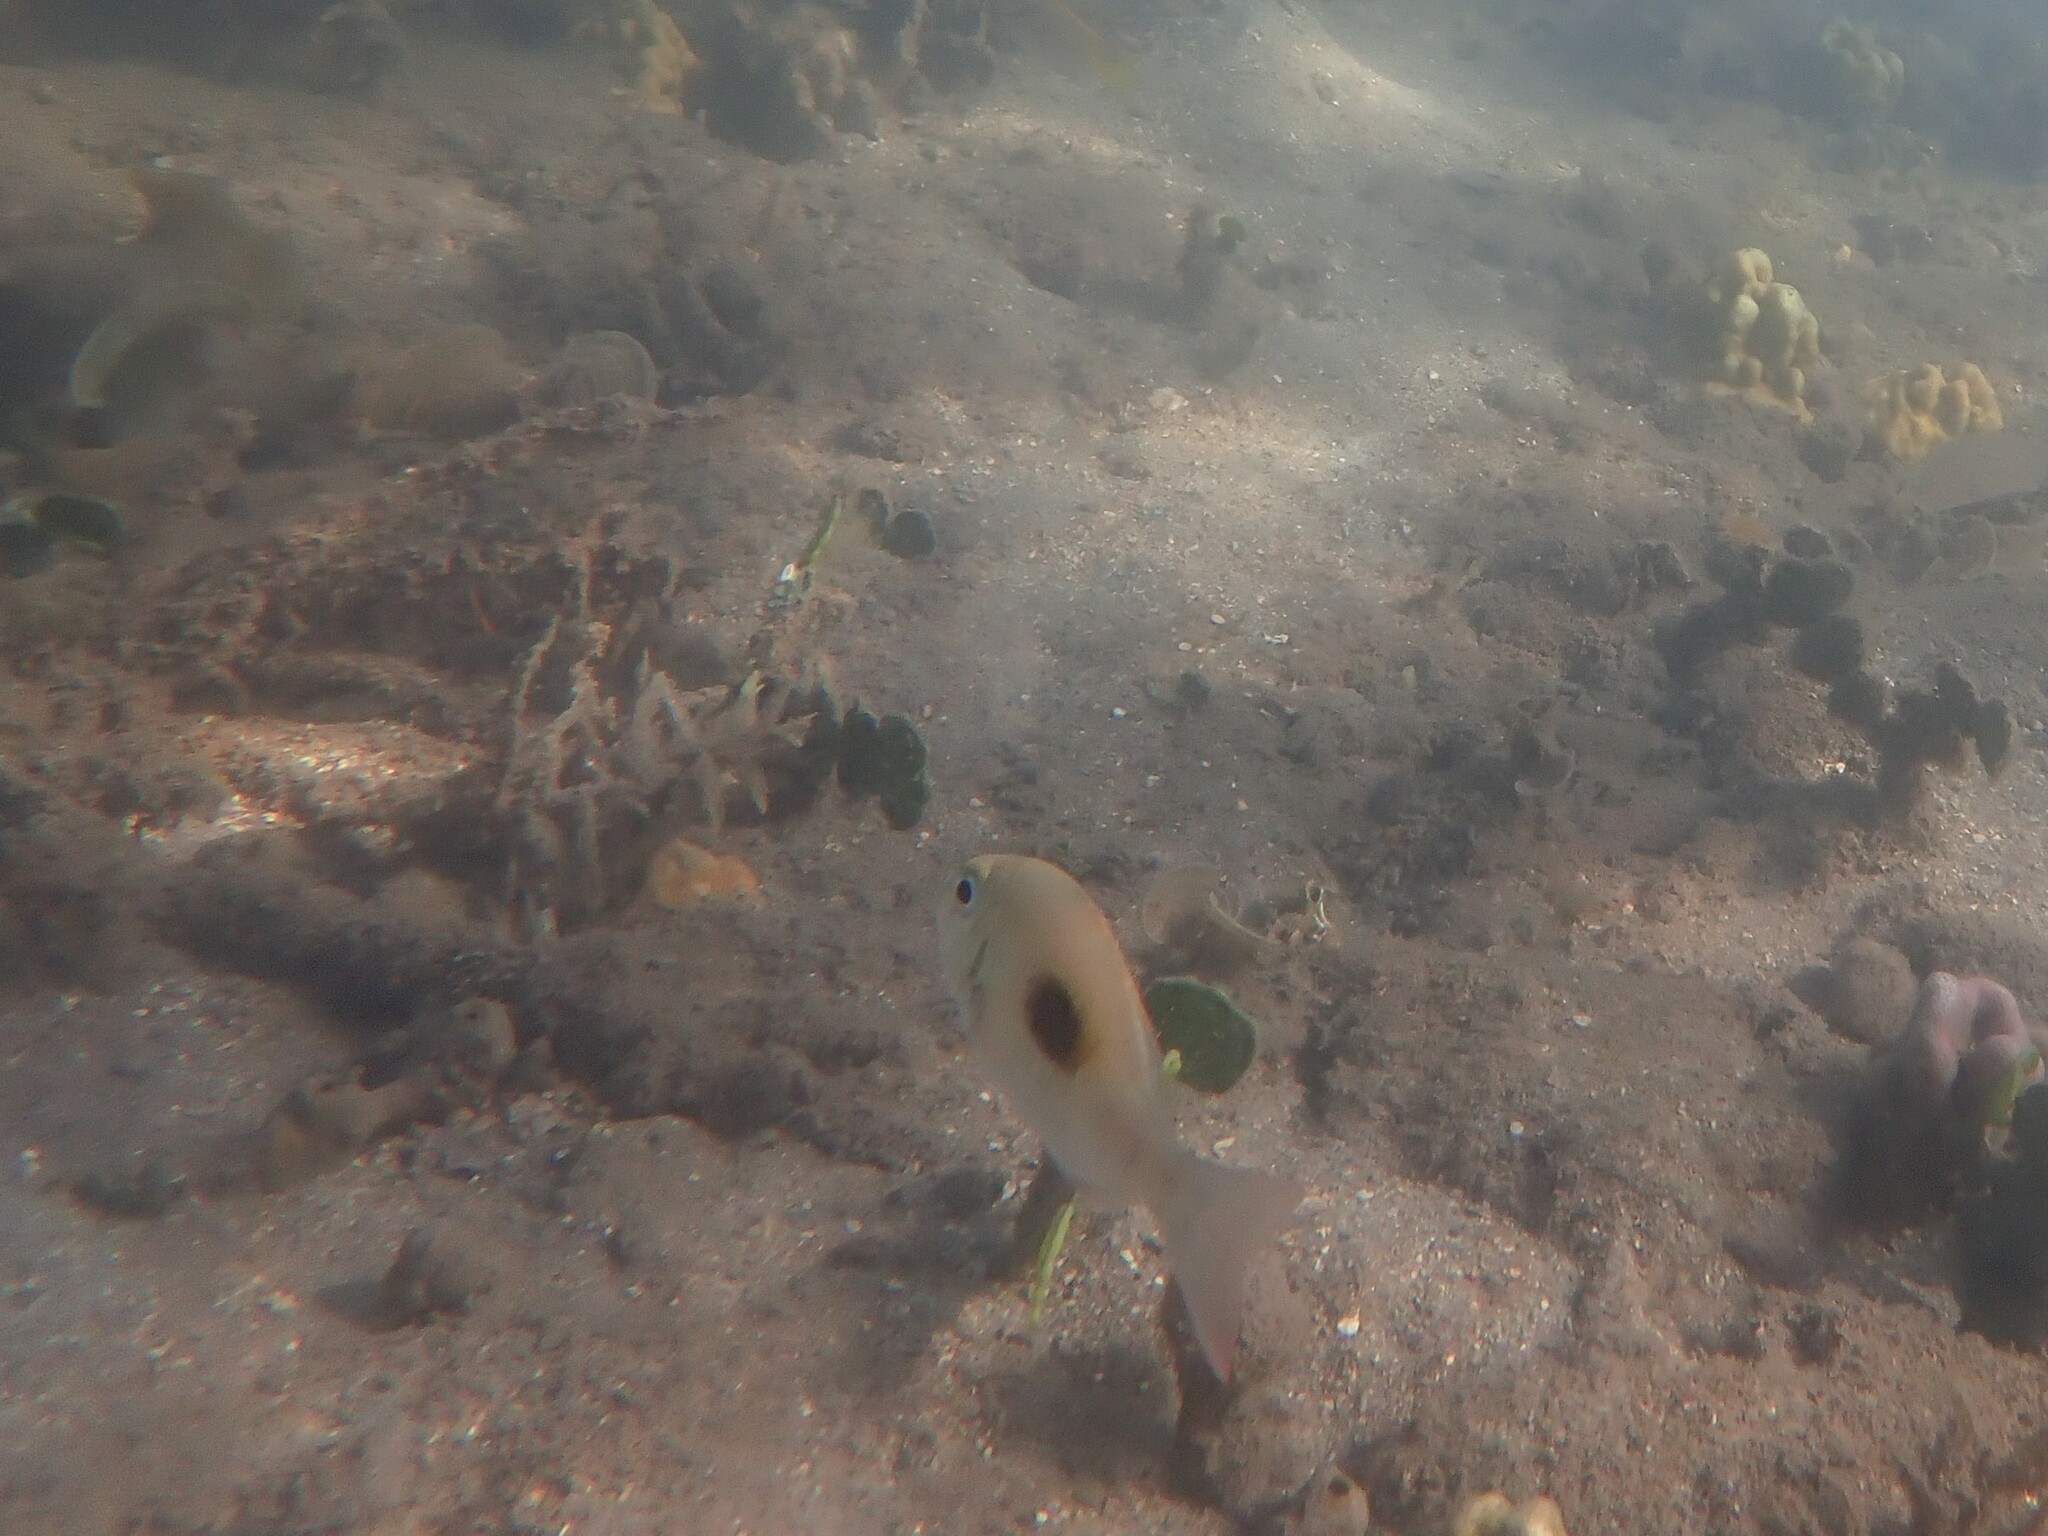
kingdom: Animalia
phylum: Chordata
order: Perciformes
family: Lethrinidae
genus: Lethrinus
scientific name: Lethrinus harak
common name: Blackspot emperor
